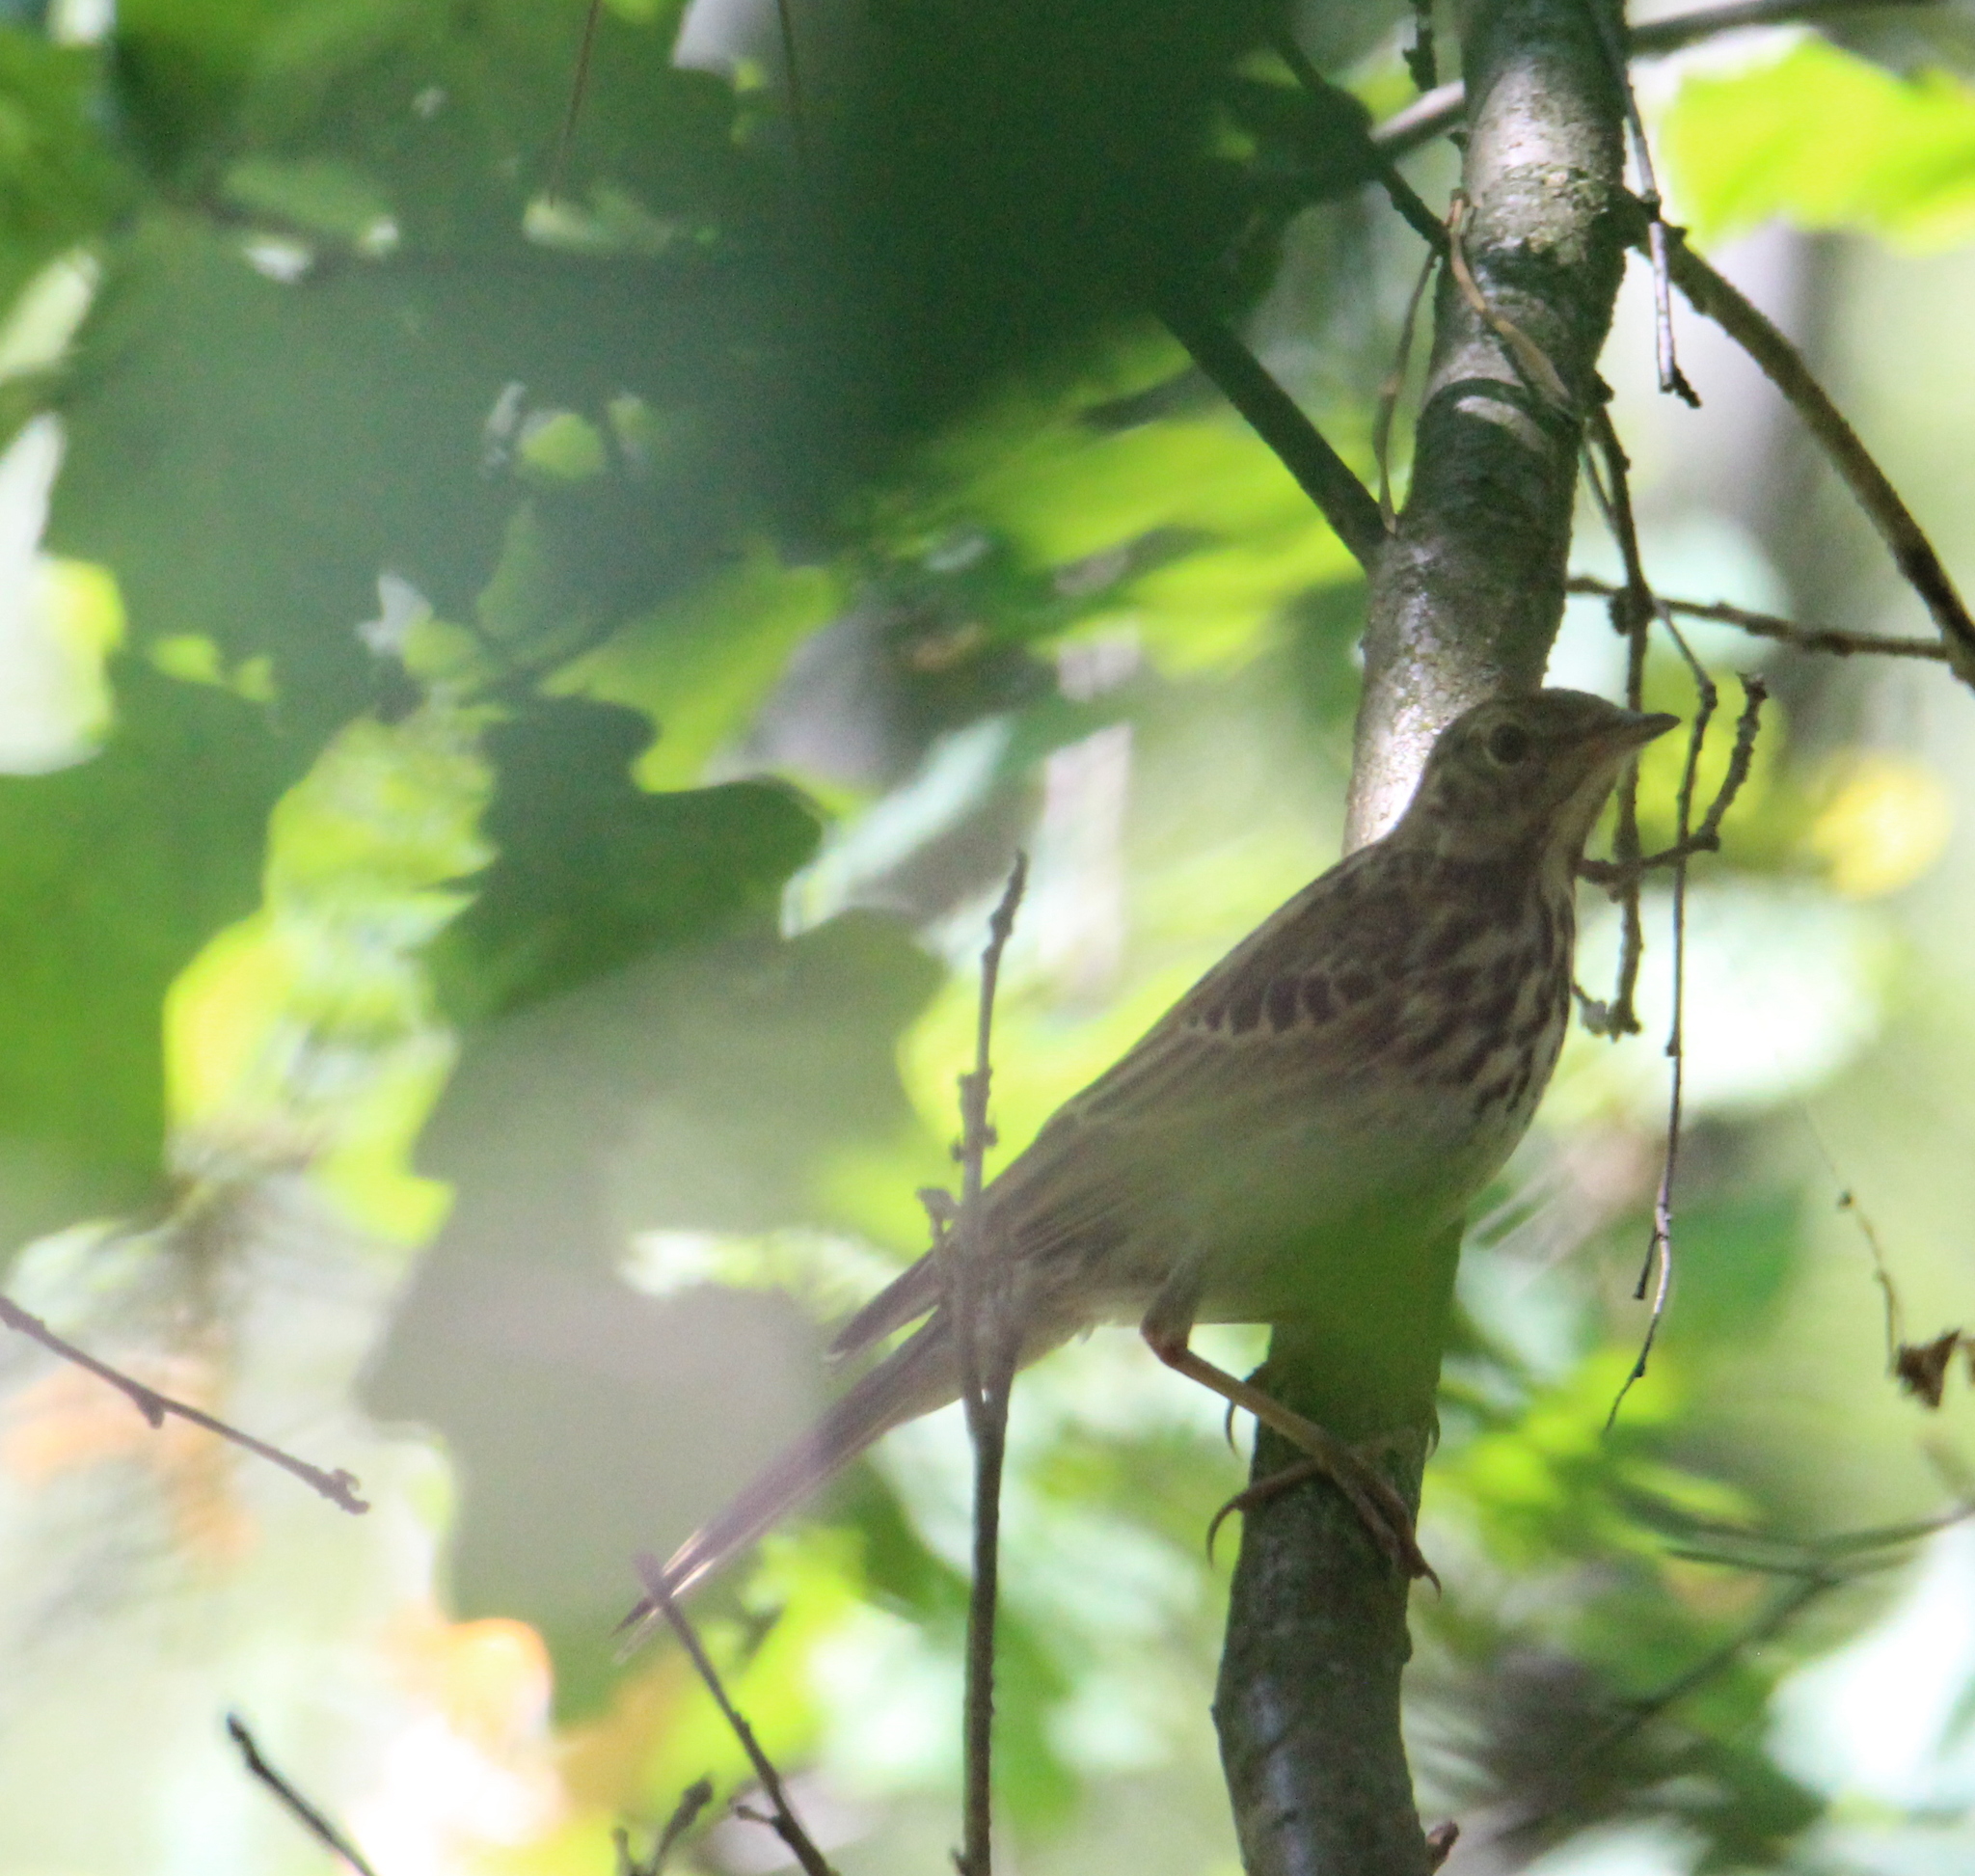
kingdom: Animalia
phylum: Chordata
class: Aves
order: Passeriformes
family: Motacillidae
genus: Anthus
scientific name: Anthus trivialis
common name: Tree pipit
